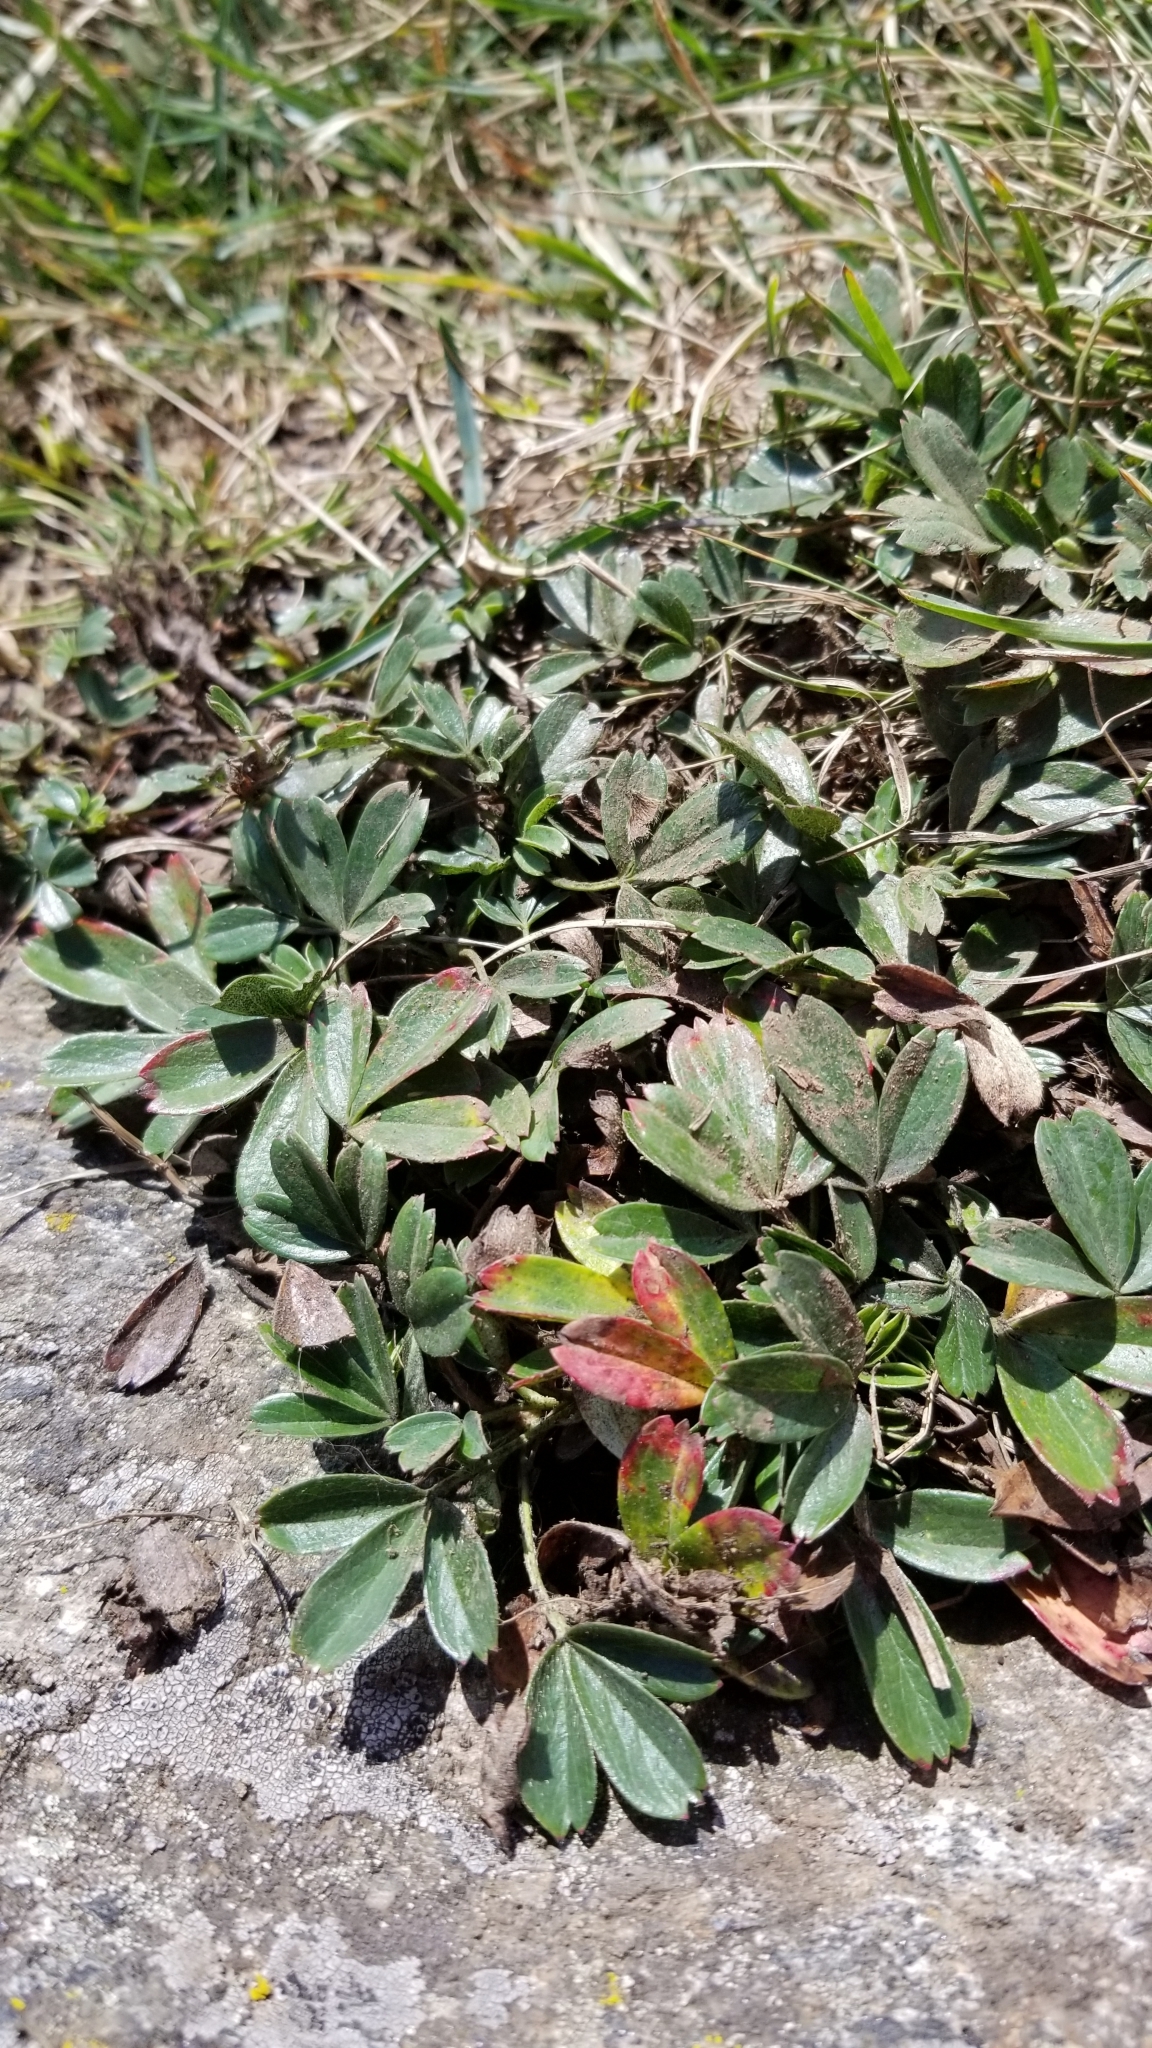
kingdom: Plantae
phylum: Tracheophyta
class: Magnoliopsida
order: Rosales
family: Rosaceae
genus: Sibbaldia
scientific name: Sibbaldia tridentata
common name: Three-toothed cinquefoil
